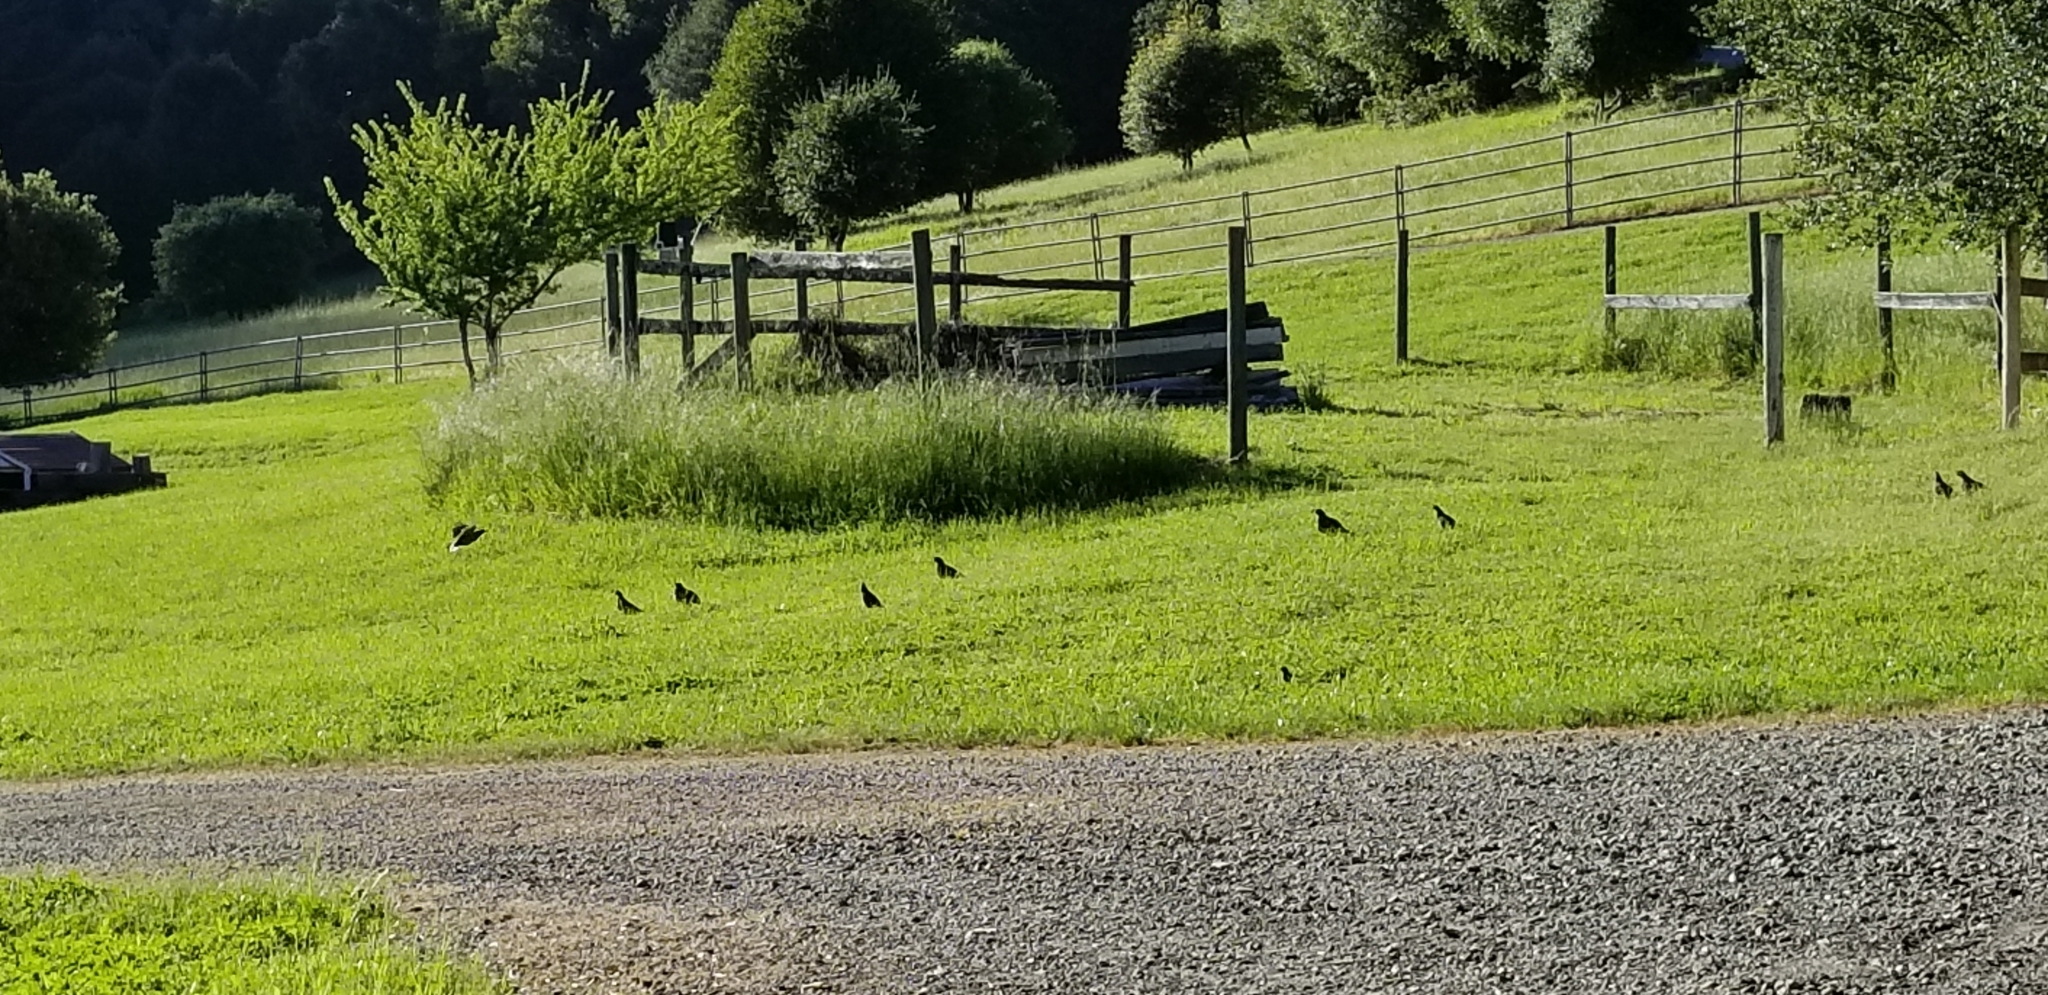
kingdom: Animalia
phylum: Chordata
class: Aves
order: Galliformes
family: Odontophoridae
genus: Callipepla
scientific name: Callipepla californica
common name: California quail
